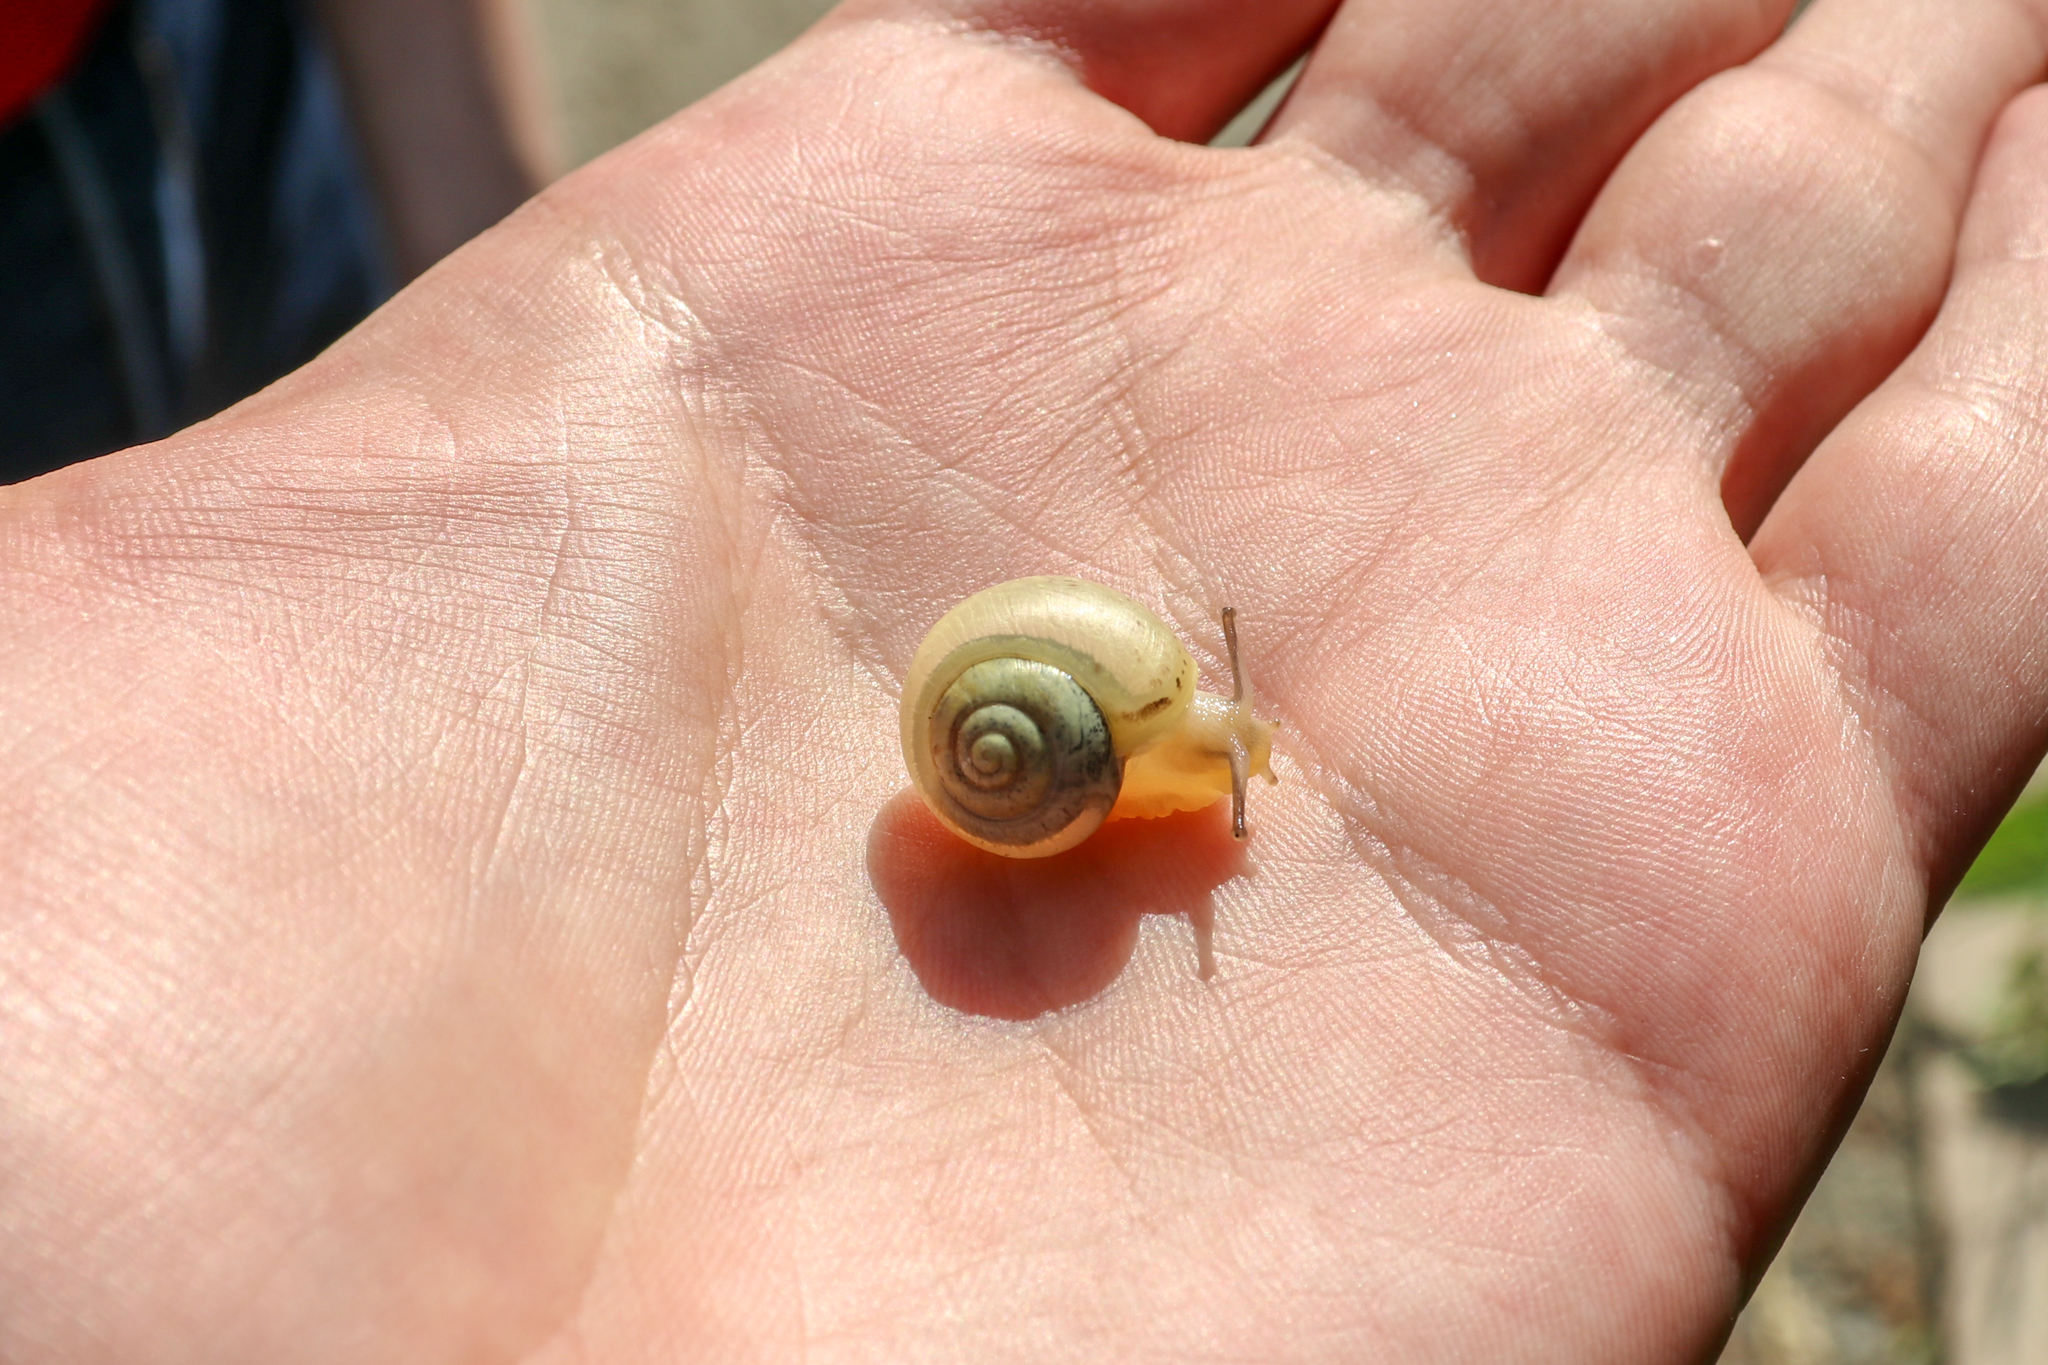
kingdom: Animalia
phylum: Mollusca
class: Gastropoda
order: Stylommatophora
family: Camaenidae
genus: Fruticicola
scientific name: Fruticicola fruticum
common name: Bush snail
